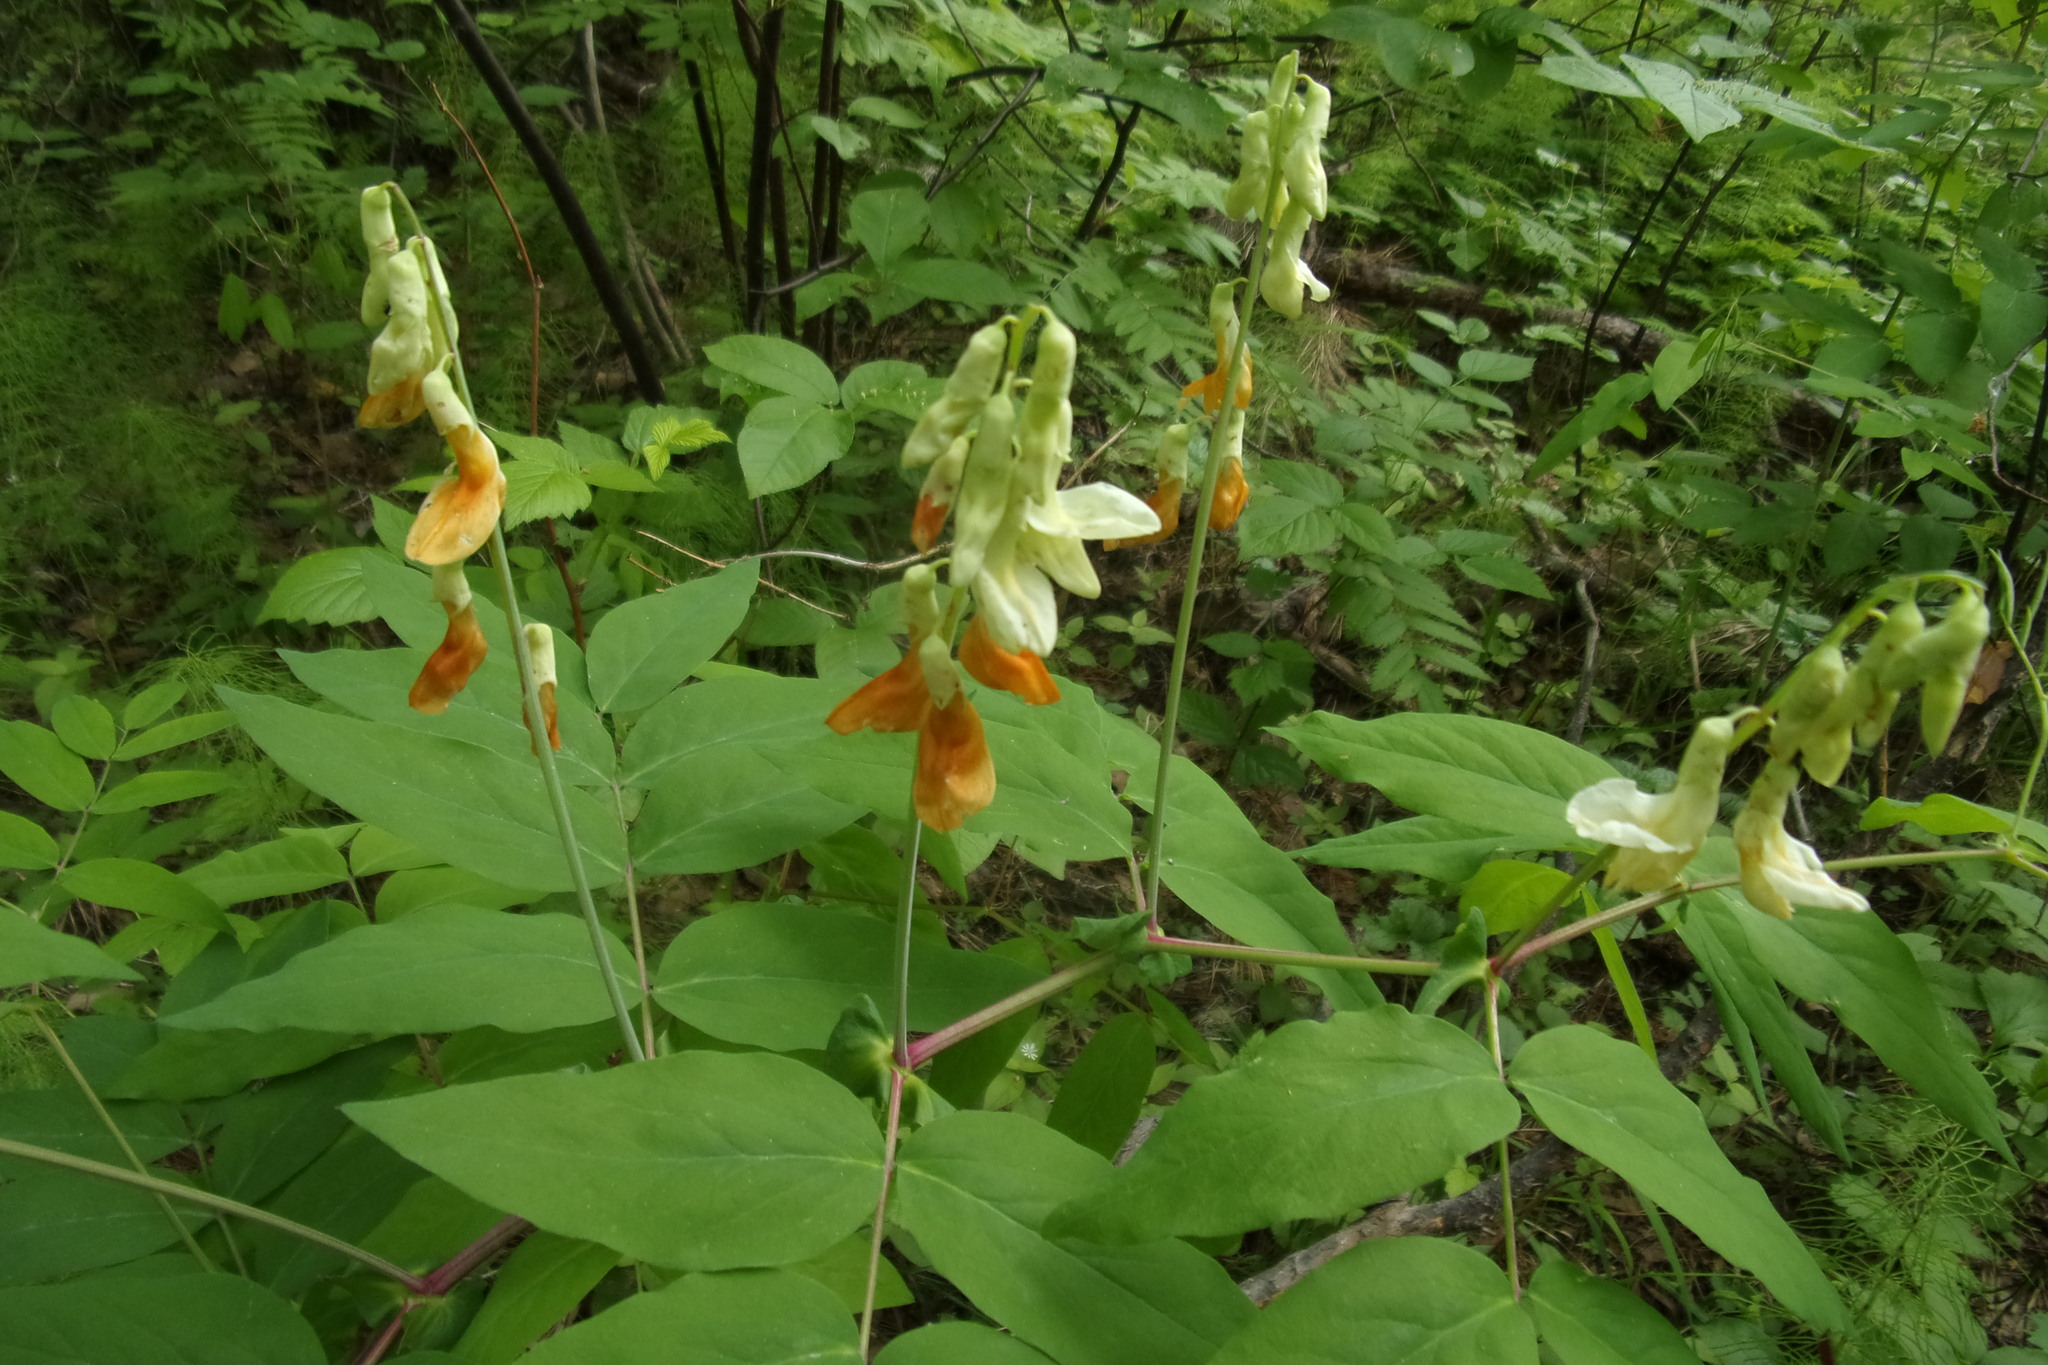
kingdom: Plantae
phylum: Tracheophyta
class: Magnoliopsida
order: Fabales
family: Fabaceae
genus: Lathyrus
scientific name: Lathyrus gmelinii
